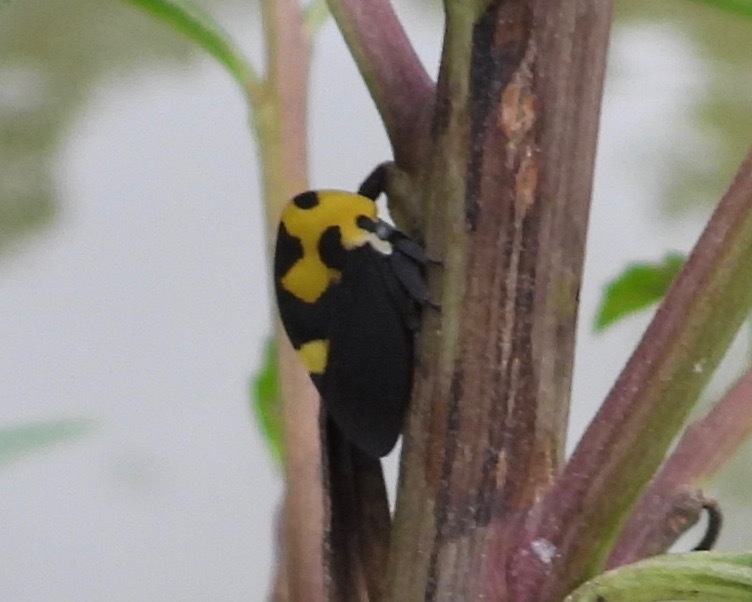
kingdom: Animalia
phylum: Arthropoda
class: Insecta
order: Hemiptera
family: Membracidae
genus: Membracis
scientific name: Membracis mexicana
